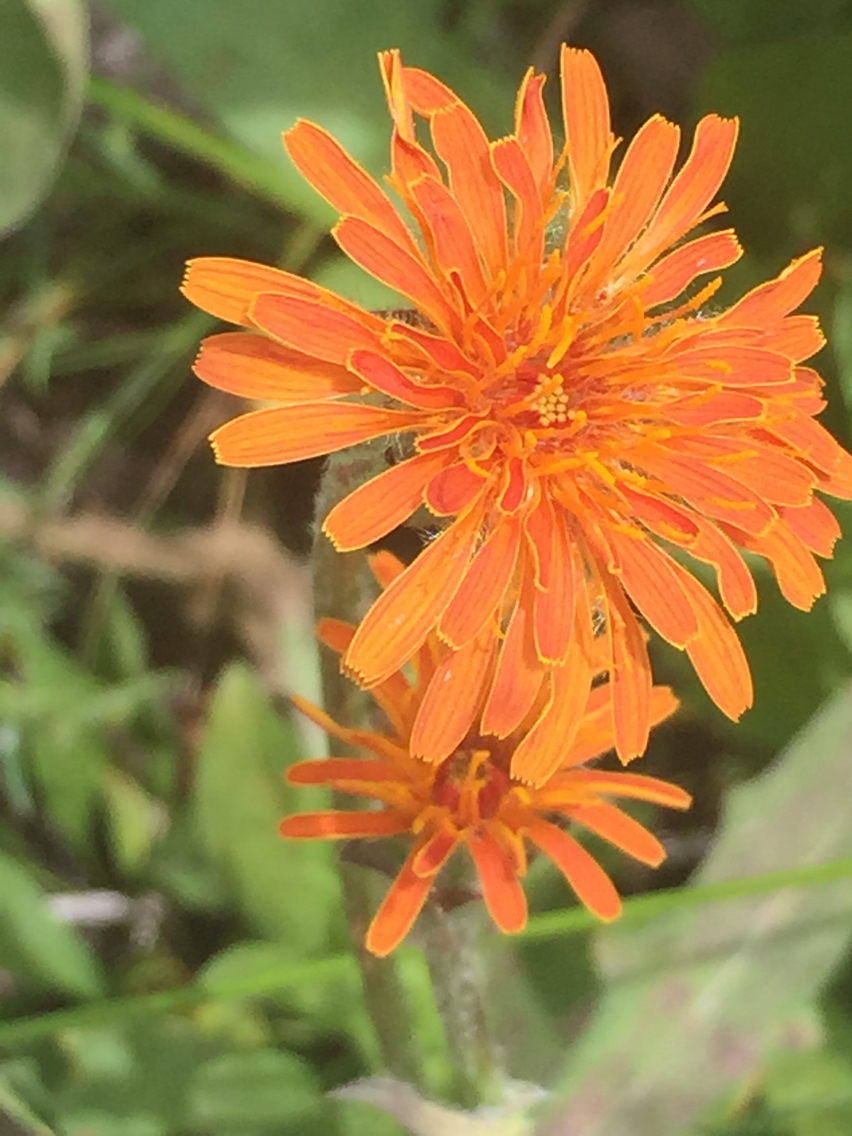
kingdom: Plantae
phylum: Tracheophyta
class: Magnoliopsida
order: Asterales
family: Asteraceae
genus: Agoseris
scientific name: Agoseris aurantiaca
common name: Mountain agoseris
